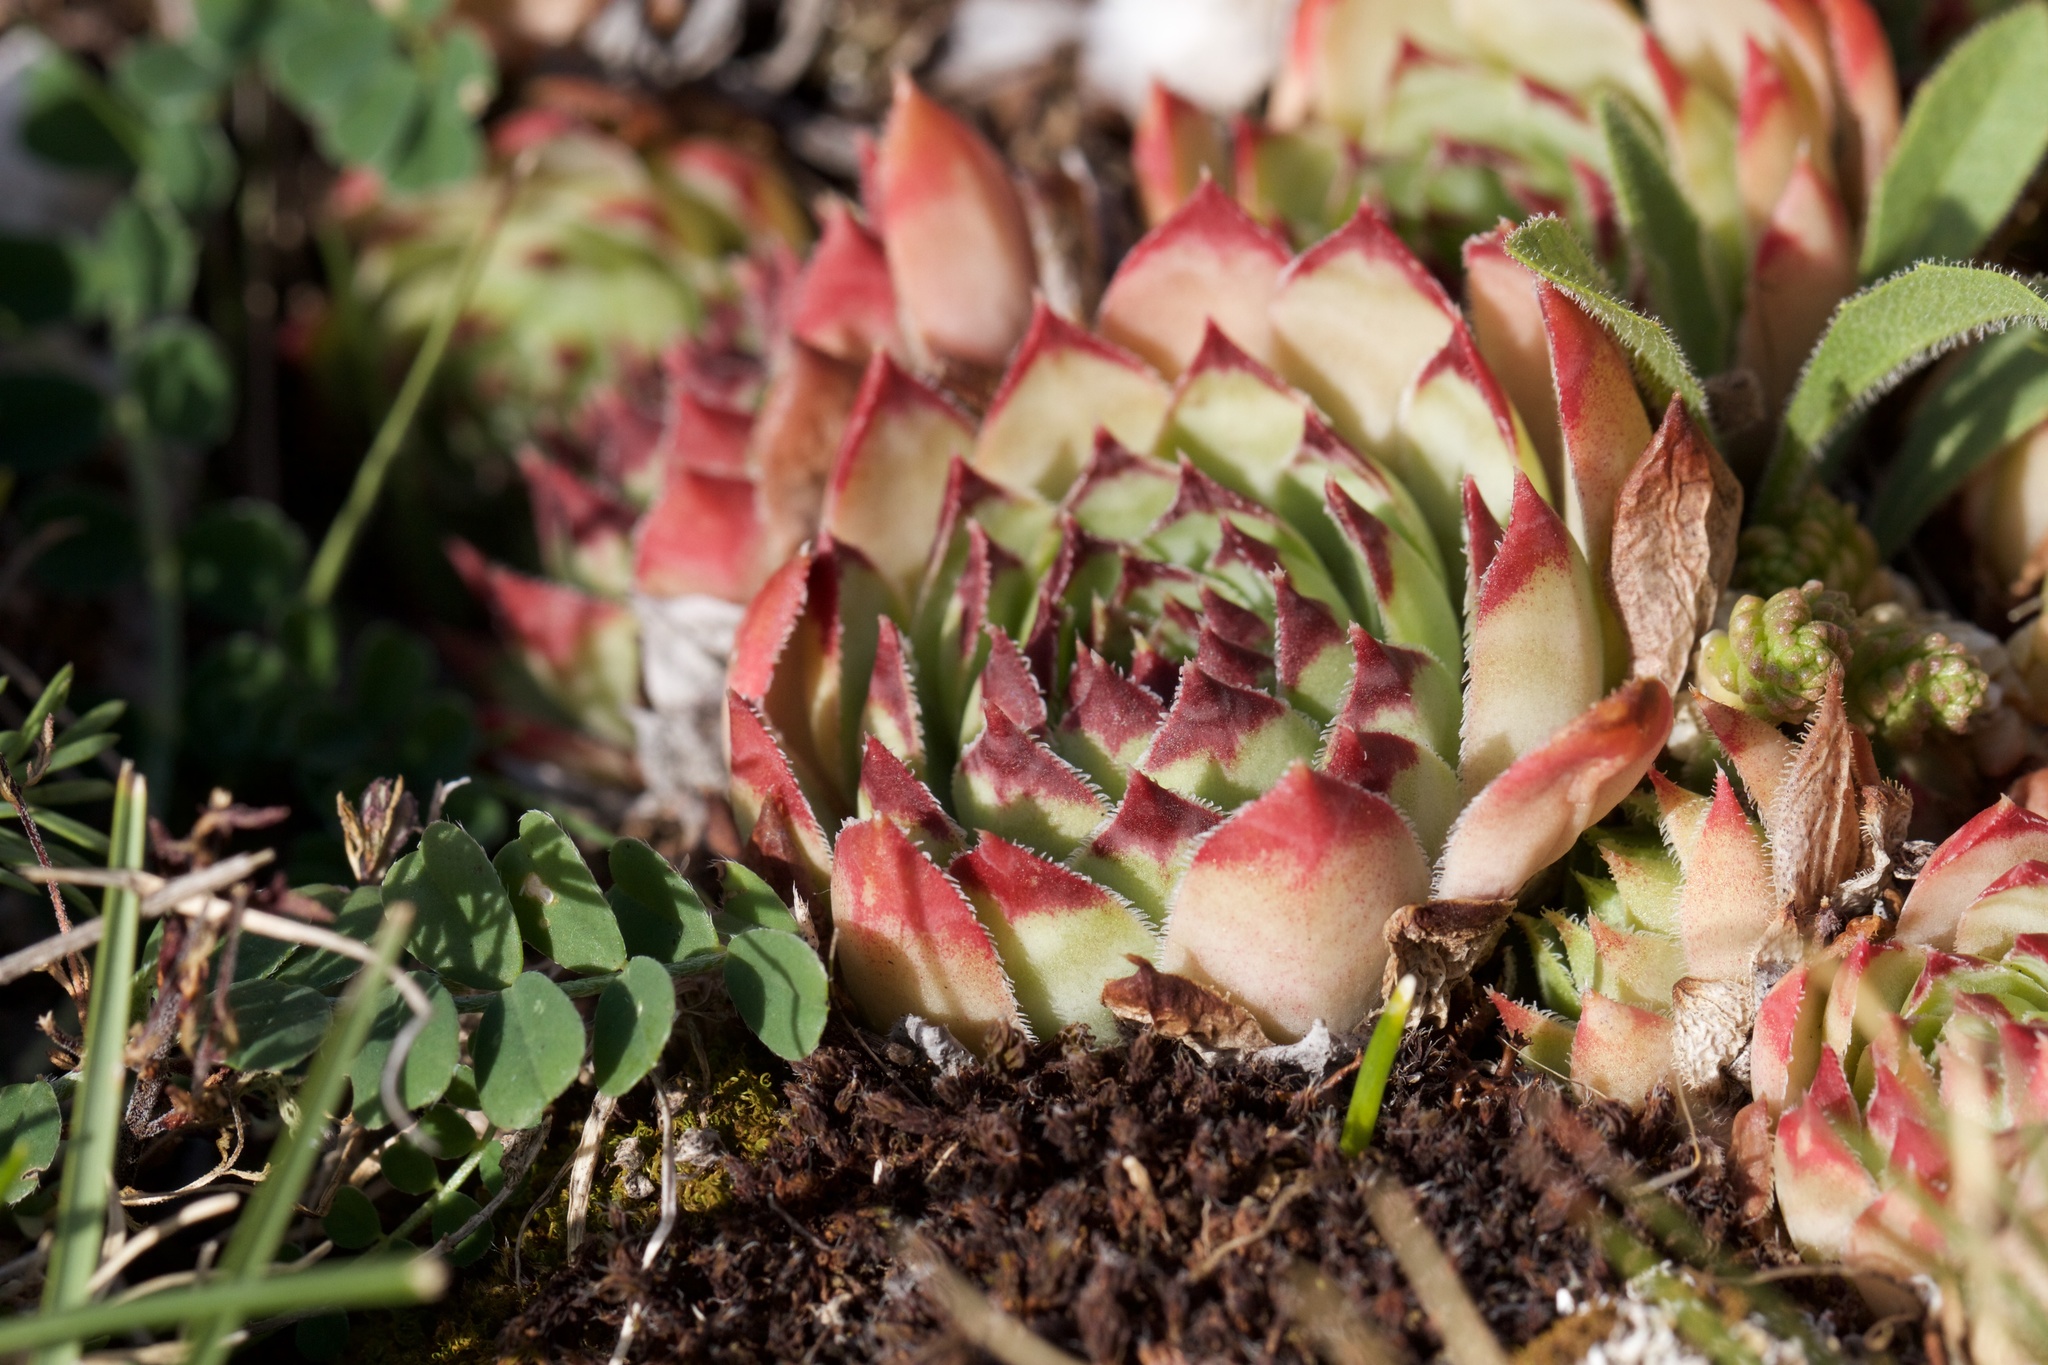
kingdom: Plantae
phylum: Tracheophyta
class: Magnoliopsida
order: Saxifragales
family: Crassulaceae
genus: Sempervivum
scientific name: Sempervivum tectorum
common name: House-leek
